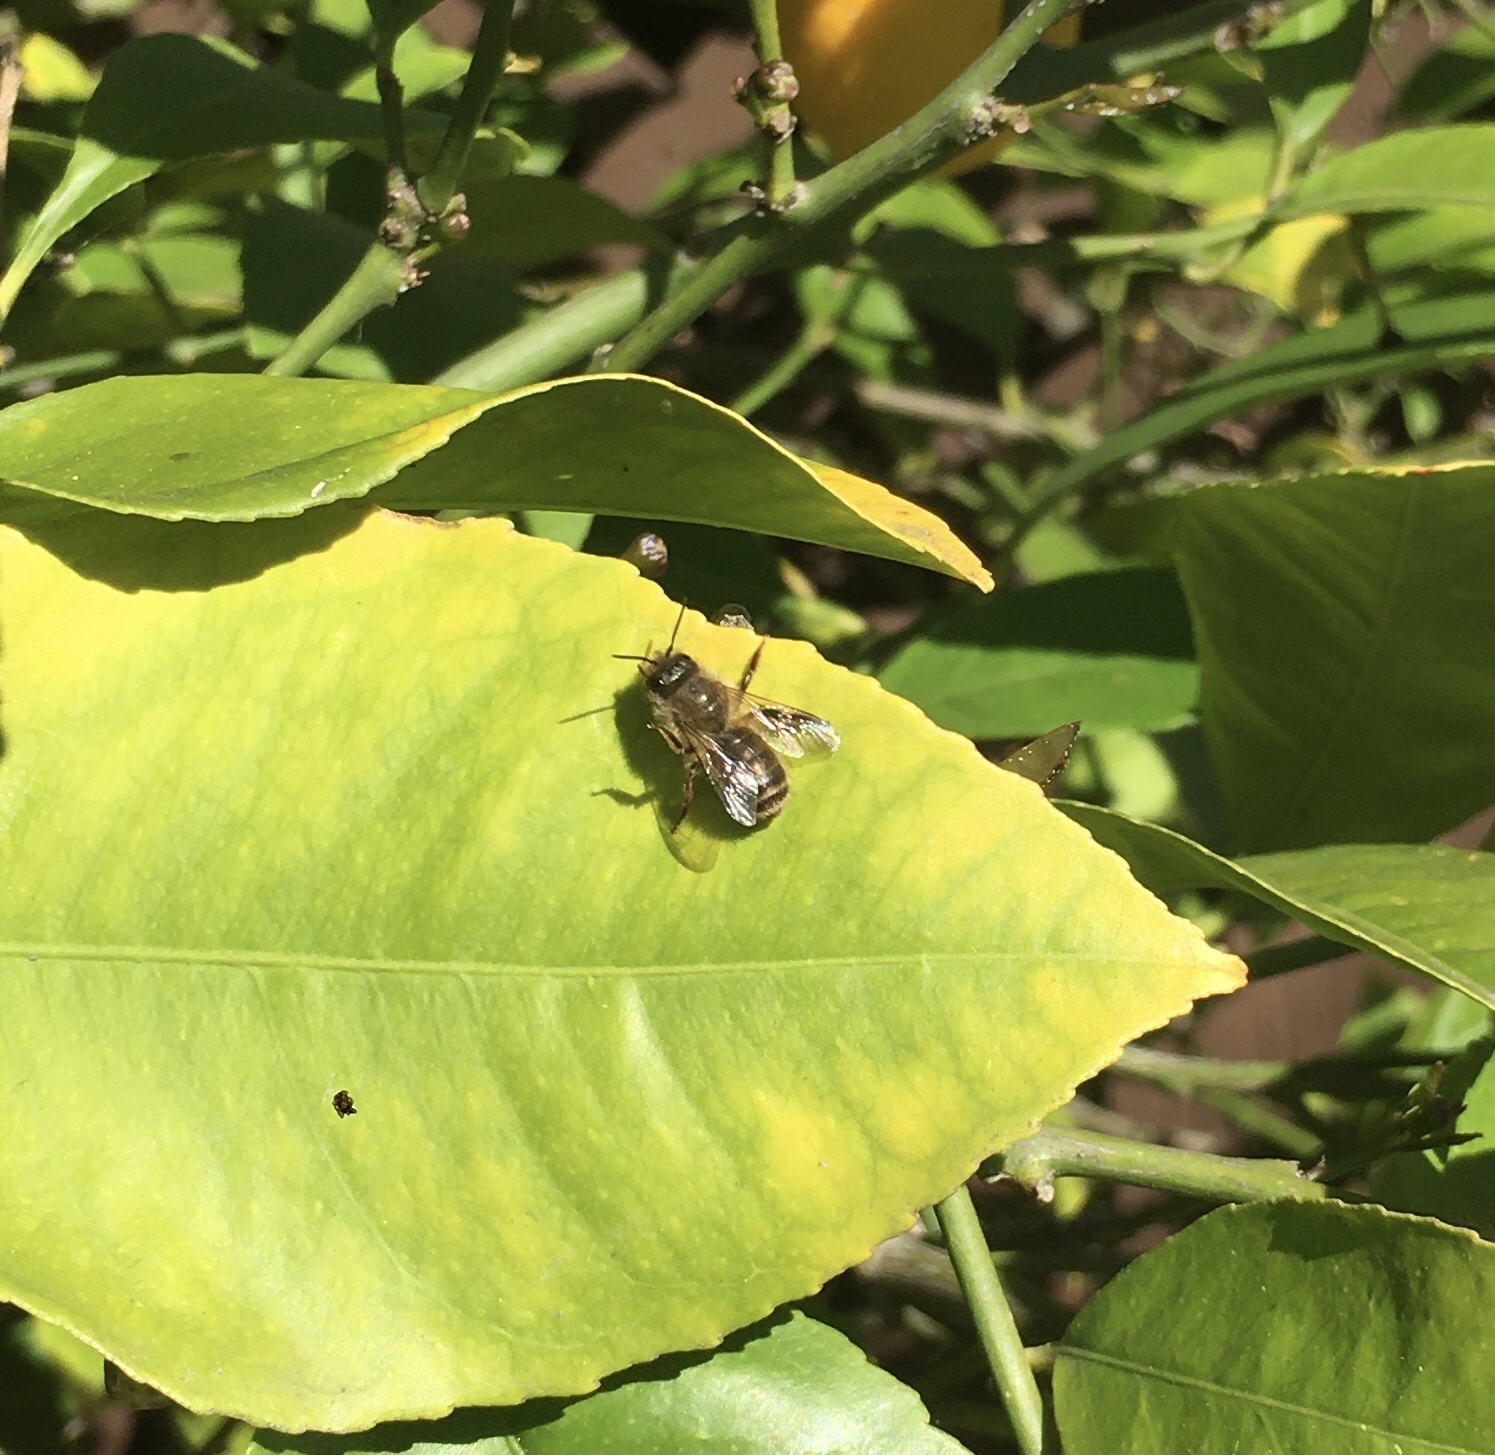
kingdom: Animalia
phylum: Arthropoda
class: Insecta
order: Hymenoptera
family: Megachilidae
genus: Osmia
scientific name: Osmia cornifrons
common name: Horn-faced bee
